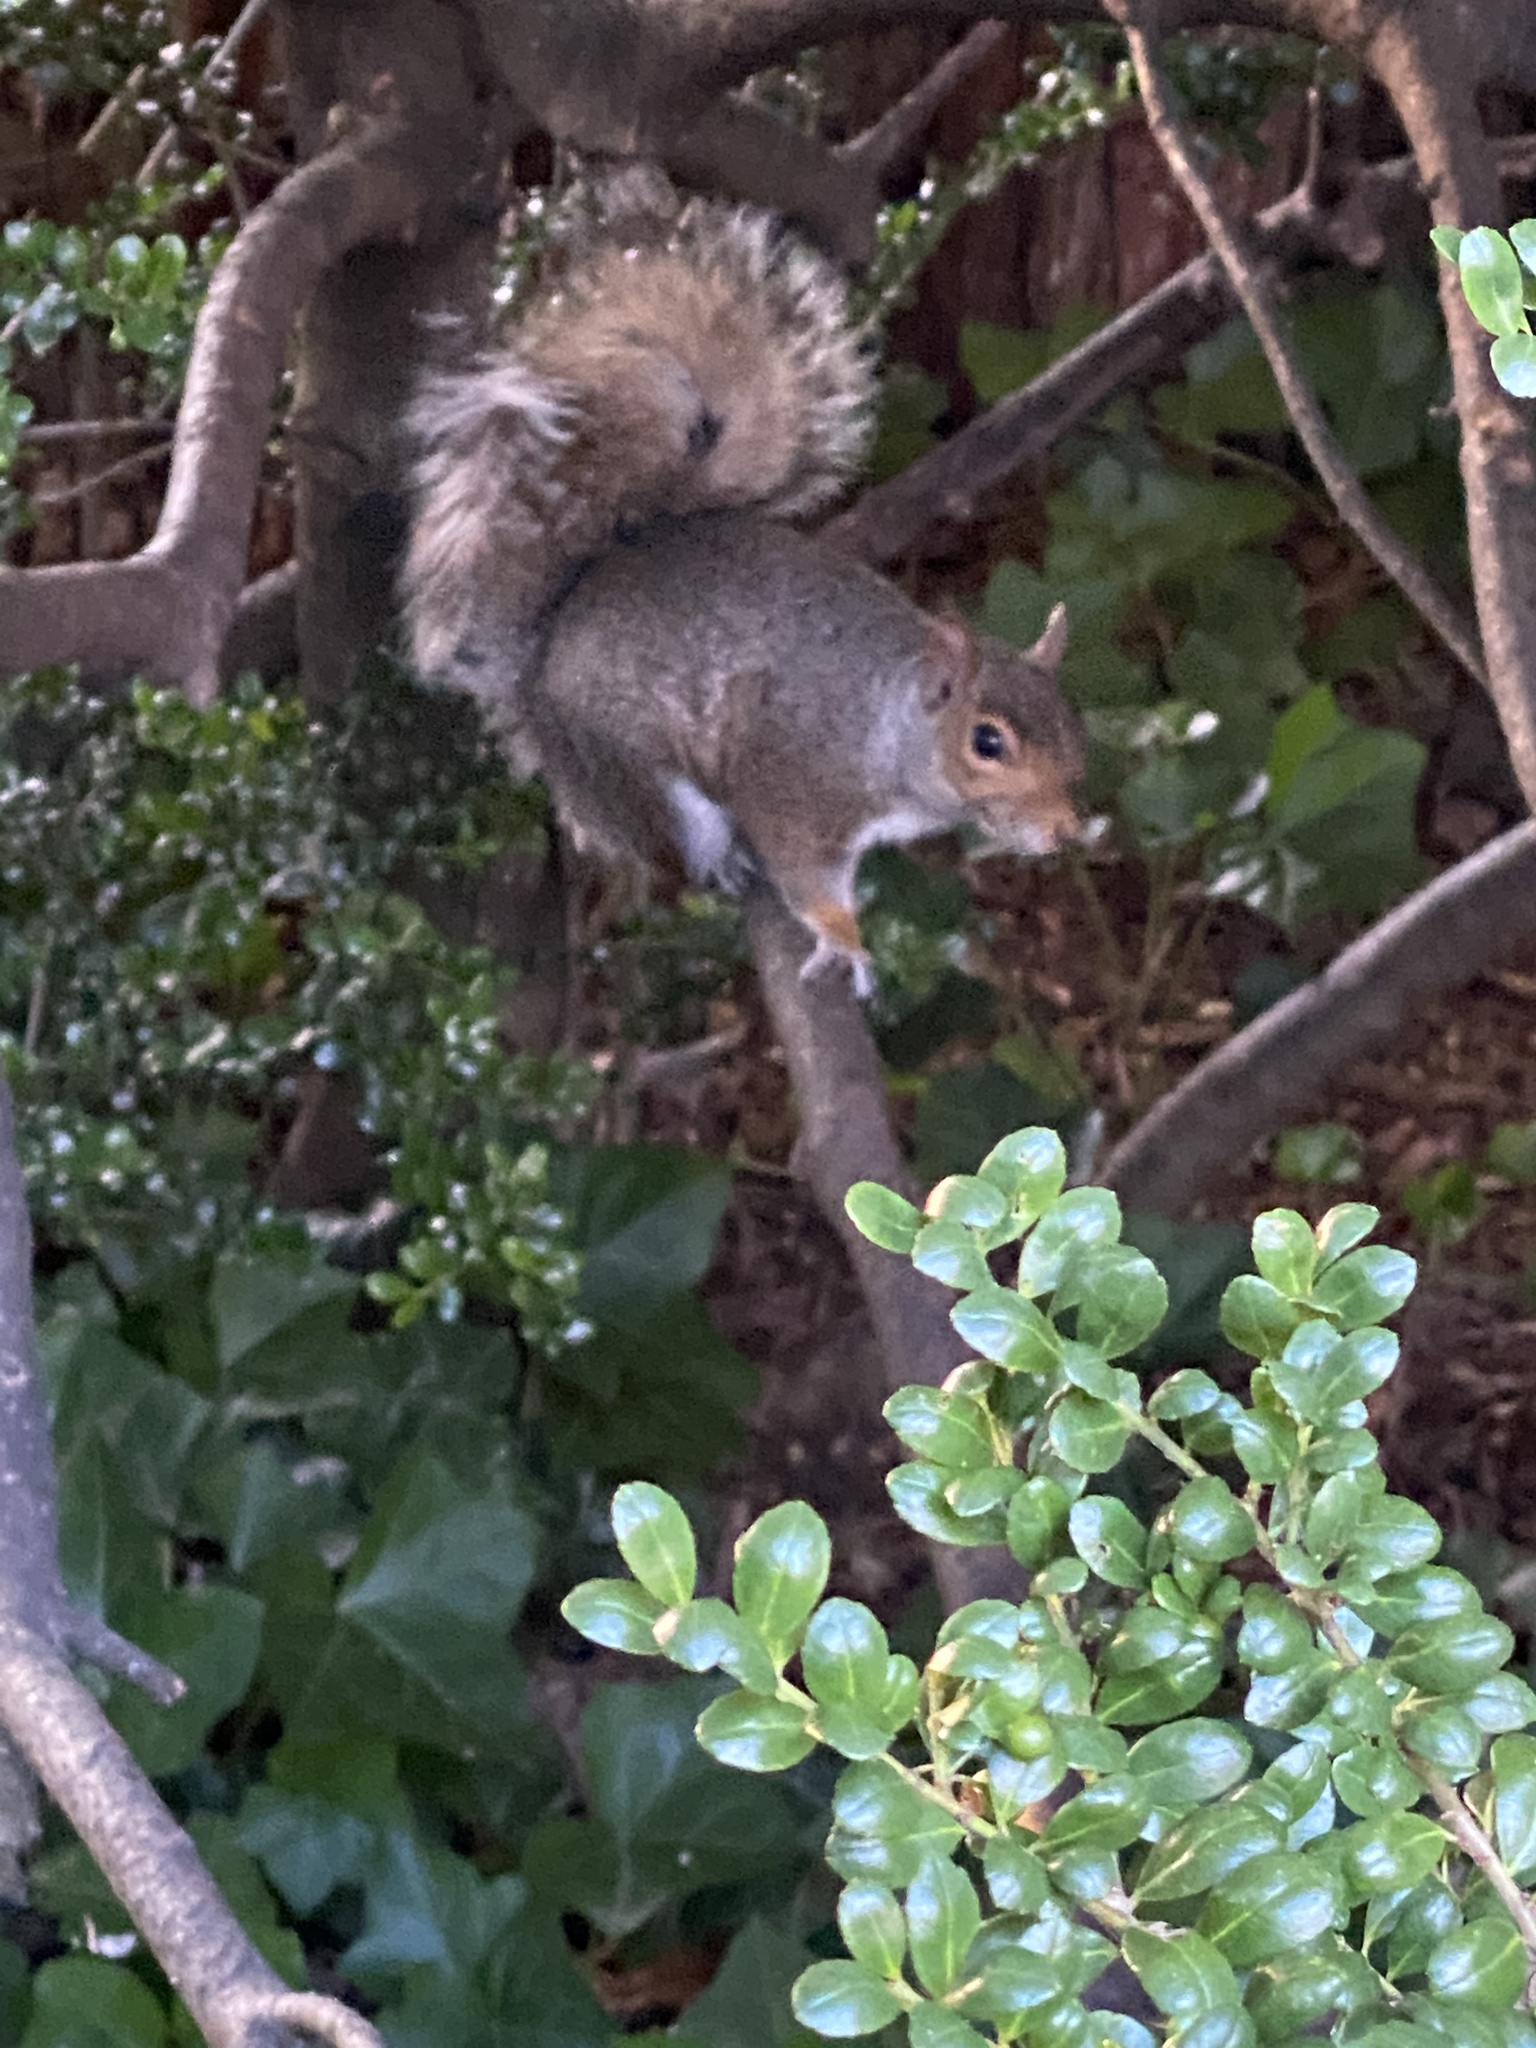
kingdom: Animalia
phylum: Chordata
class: Mammalia
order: Rodentia
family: Sciuridae
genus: Sciurus
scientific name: Sciurus carolinensis
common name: Eastern gray squirrel
